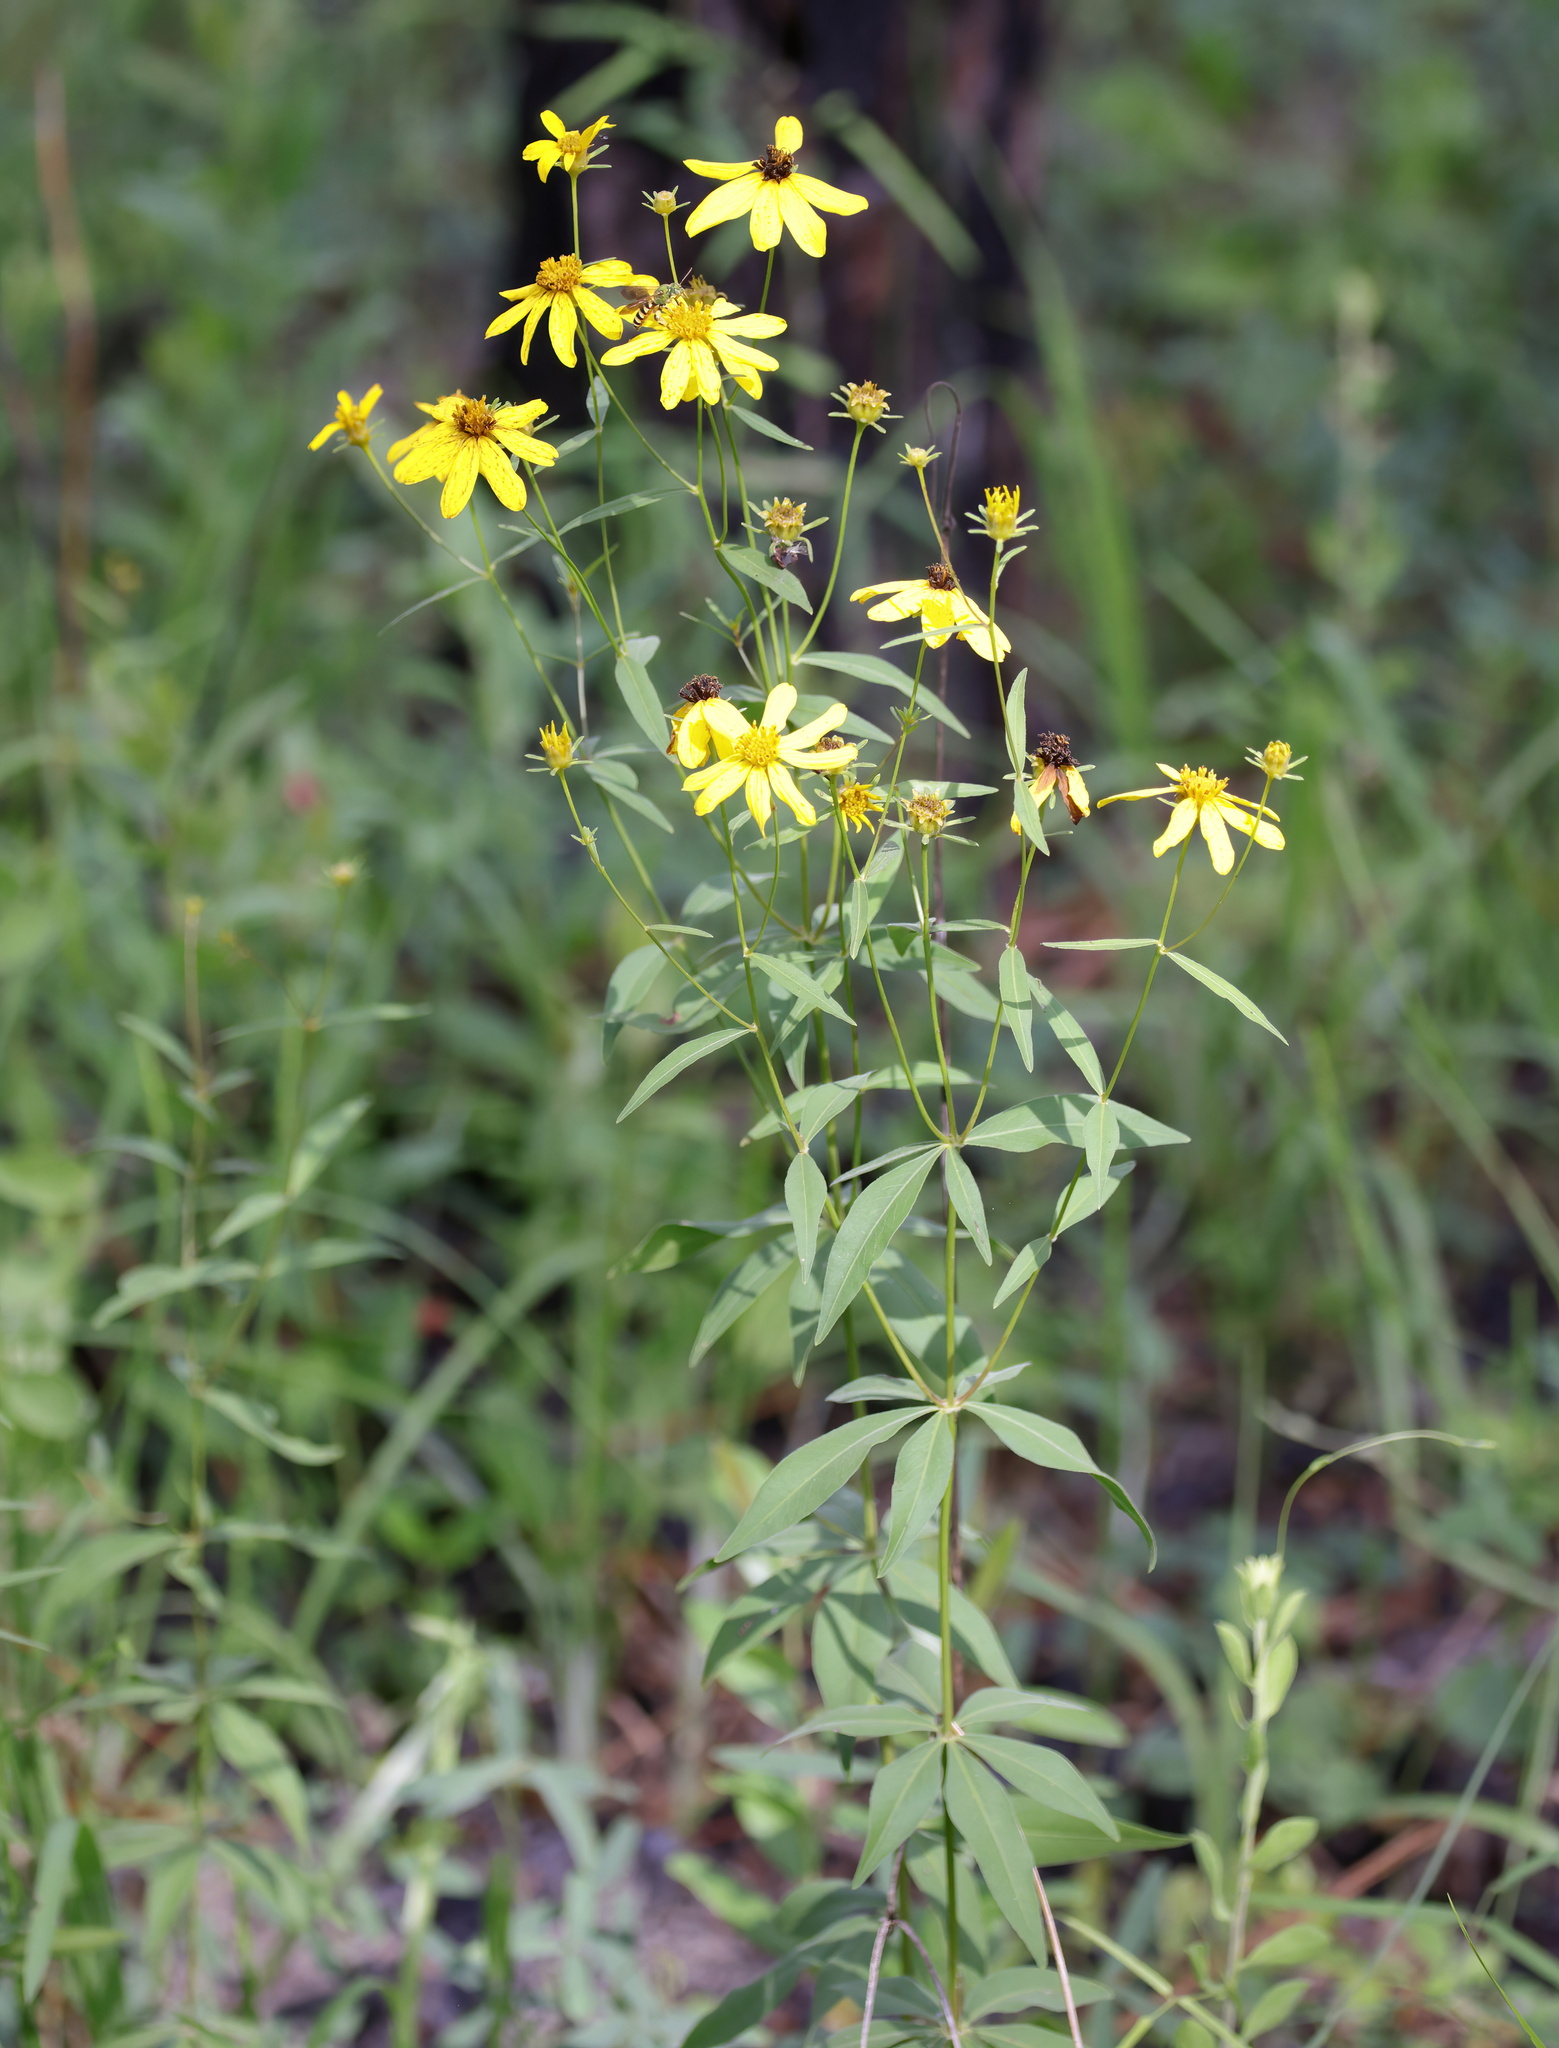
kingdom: Plantae
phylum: Tracheophyta
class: Magnoliopsida
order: Asterales
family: Asteraceae
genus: Coreopsis
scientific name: Coreopsis major
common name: Forest tickseed
